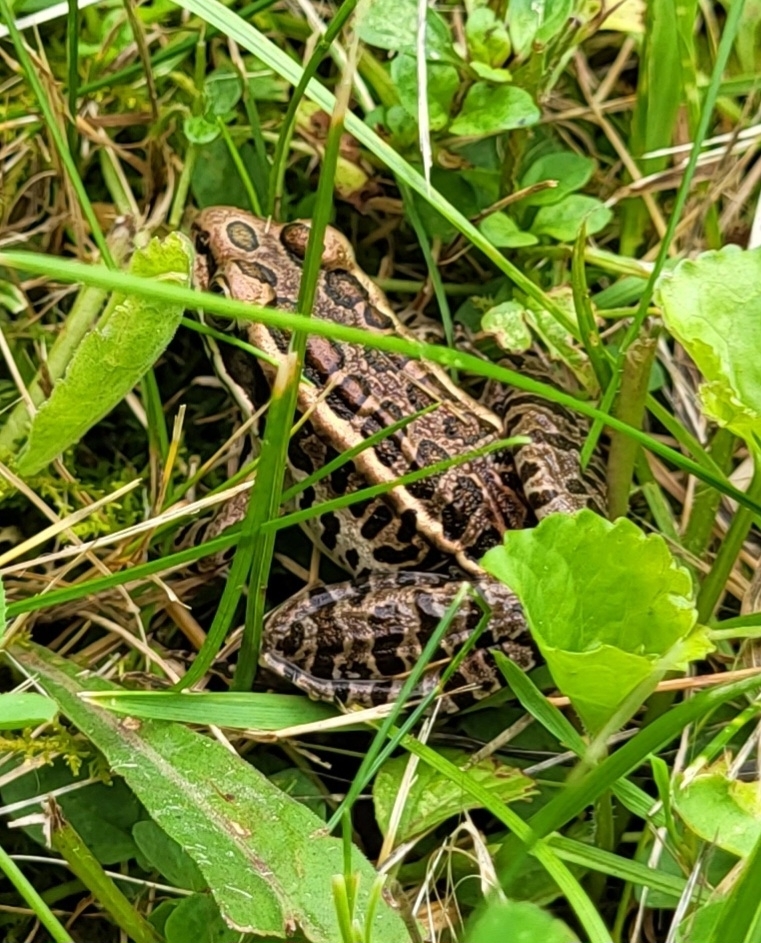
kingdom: Animalia
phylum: Chordata
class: Amphibia
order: Anura
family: Ranidae
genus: Lithobates
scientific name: Lithobates palustris
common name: Pickerel frog
